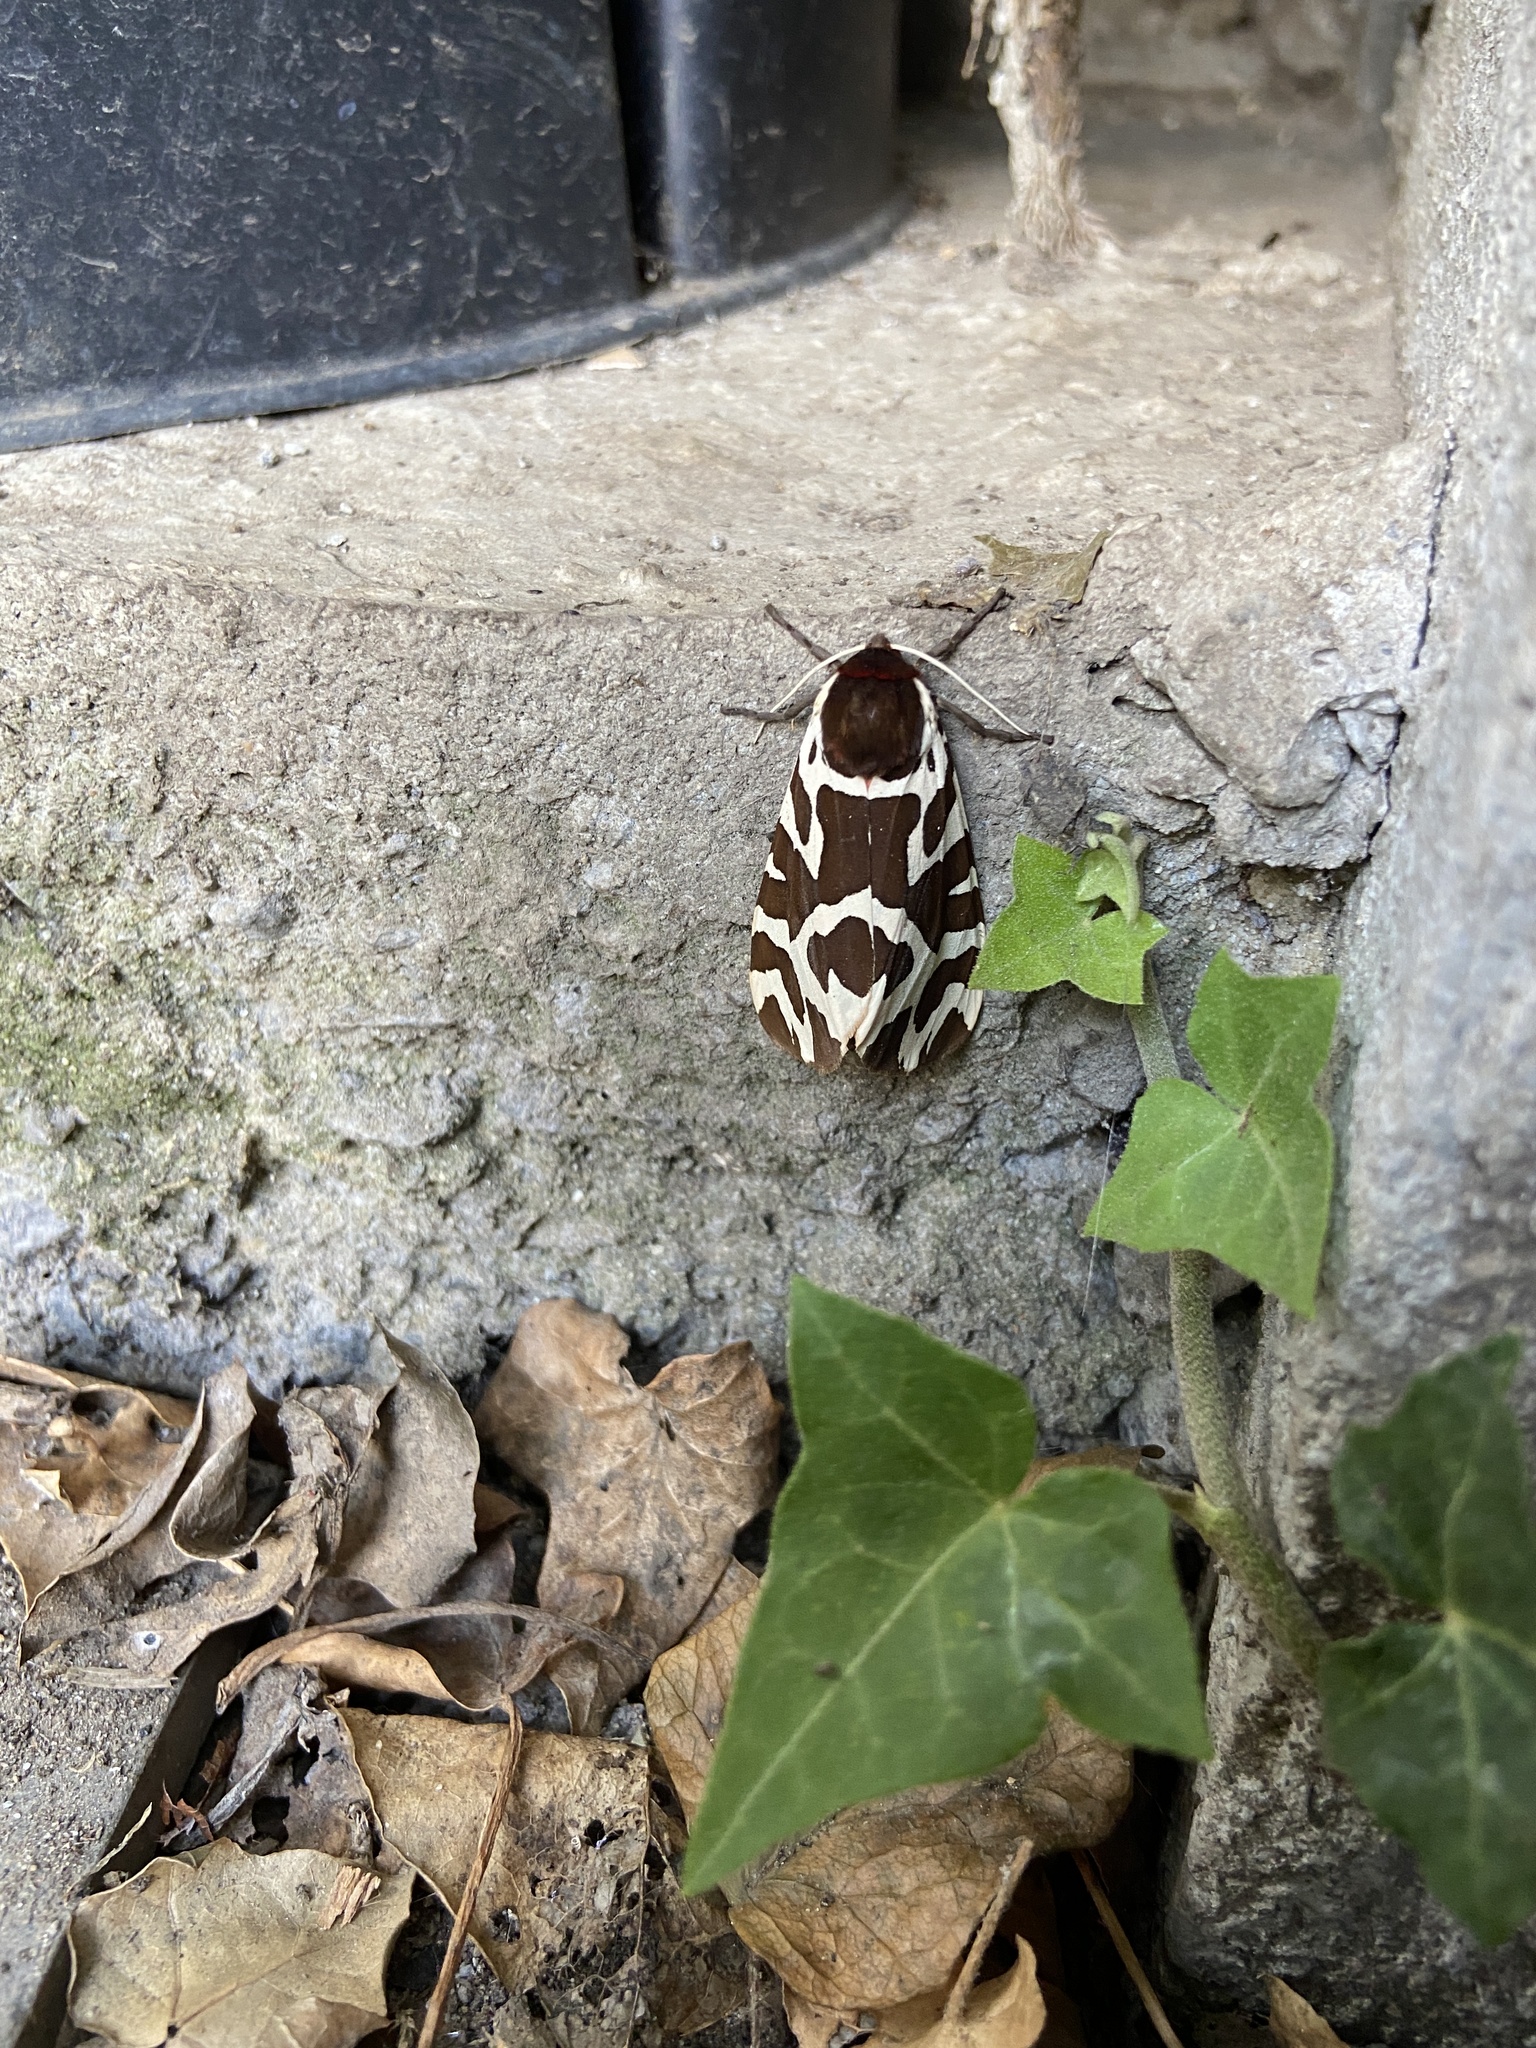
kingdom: Animalia
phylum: Arthropoda
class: Insecta
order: Lepidoptera
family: Erebidae
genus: Arctia
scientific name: Arctia caja
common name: Garden tiger
